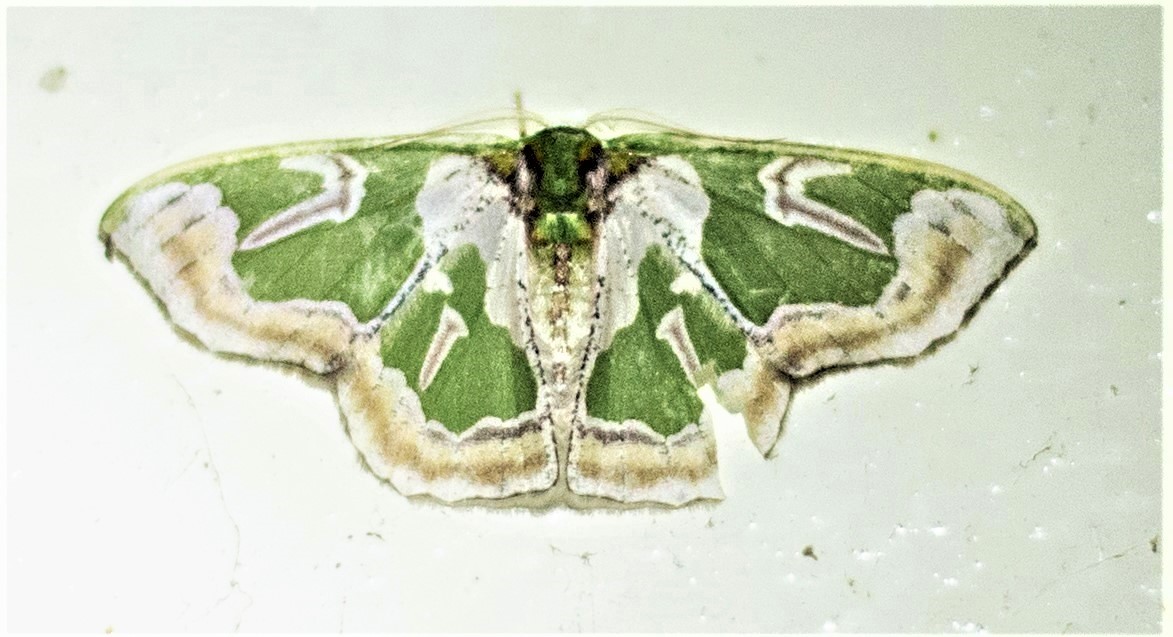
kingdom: Animalia
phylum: Arthropoda
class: Insecta
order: Lepidoptera
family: Geometridae
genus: Oospila
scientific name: Oospila obeliscata
